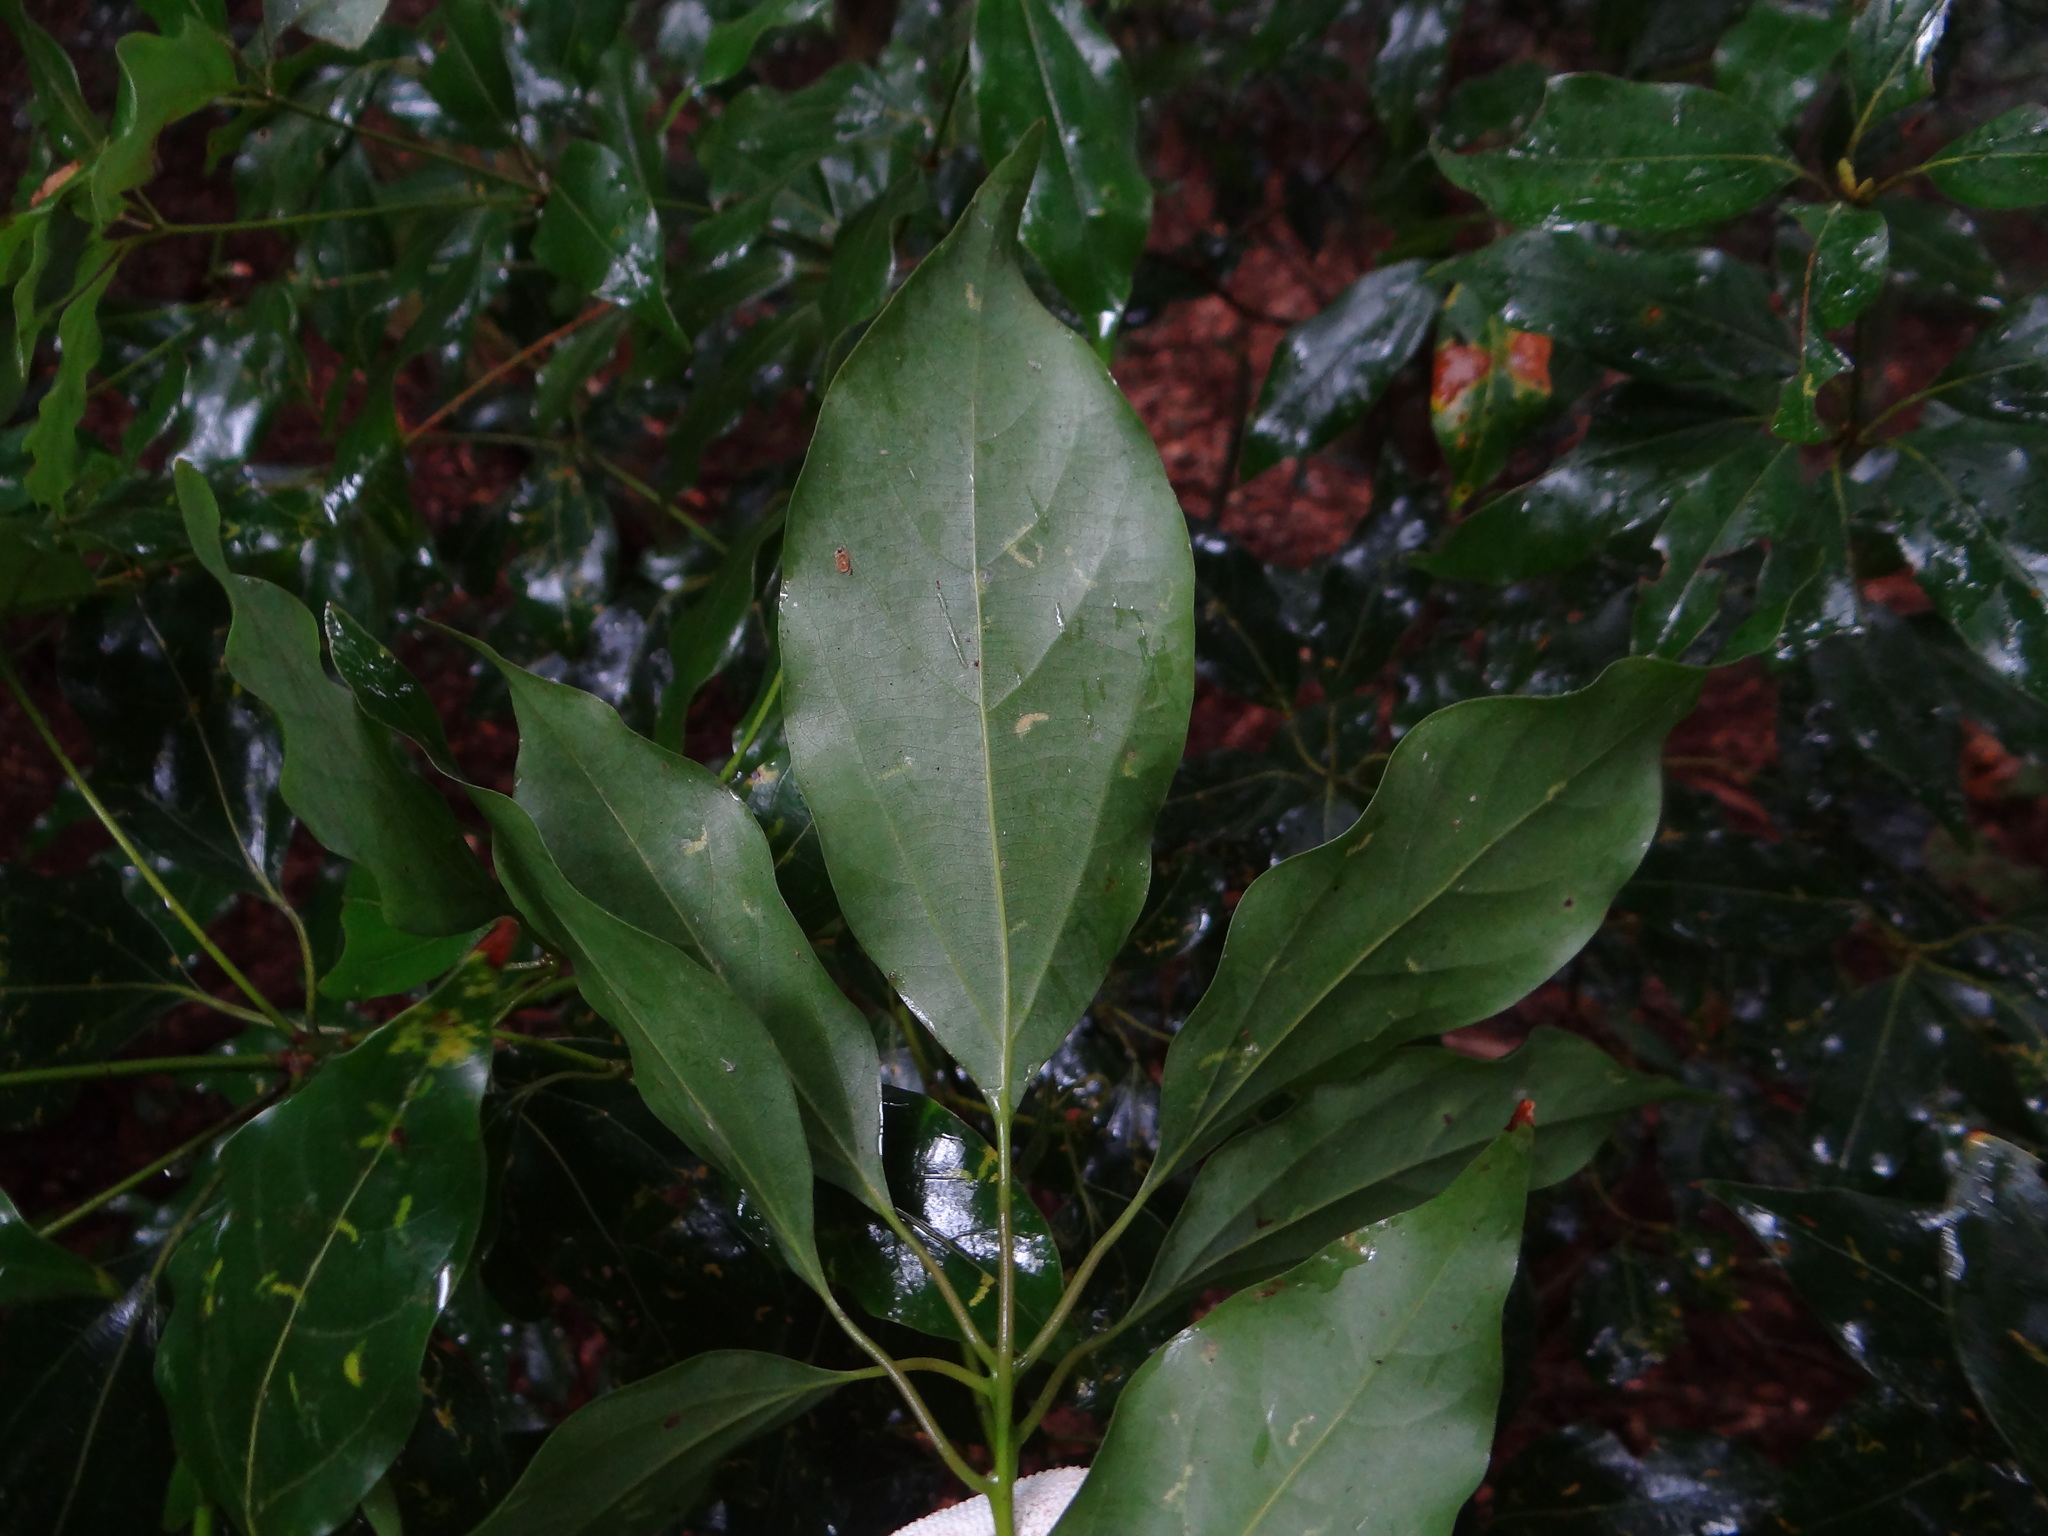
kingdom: Plantae
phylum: Tracheophyta
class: Magnoliopsida
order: Laurales
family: Lauraceae
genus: Neolitsea
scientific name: Neolitsea parvigemma
